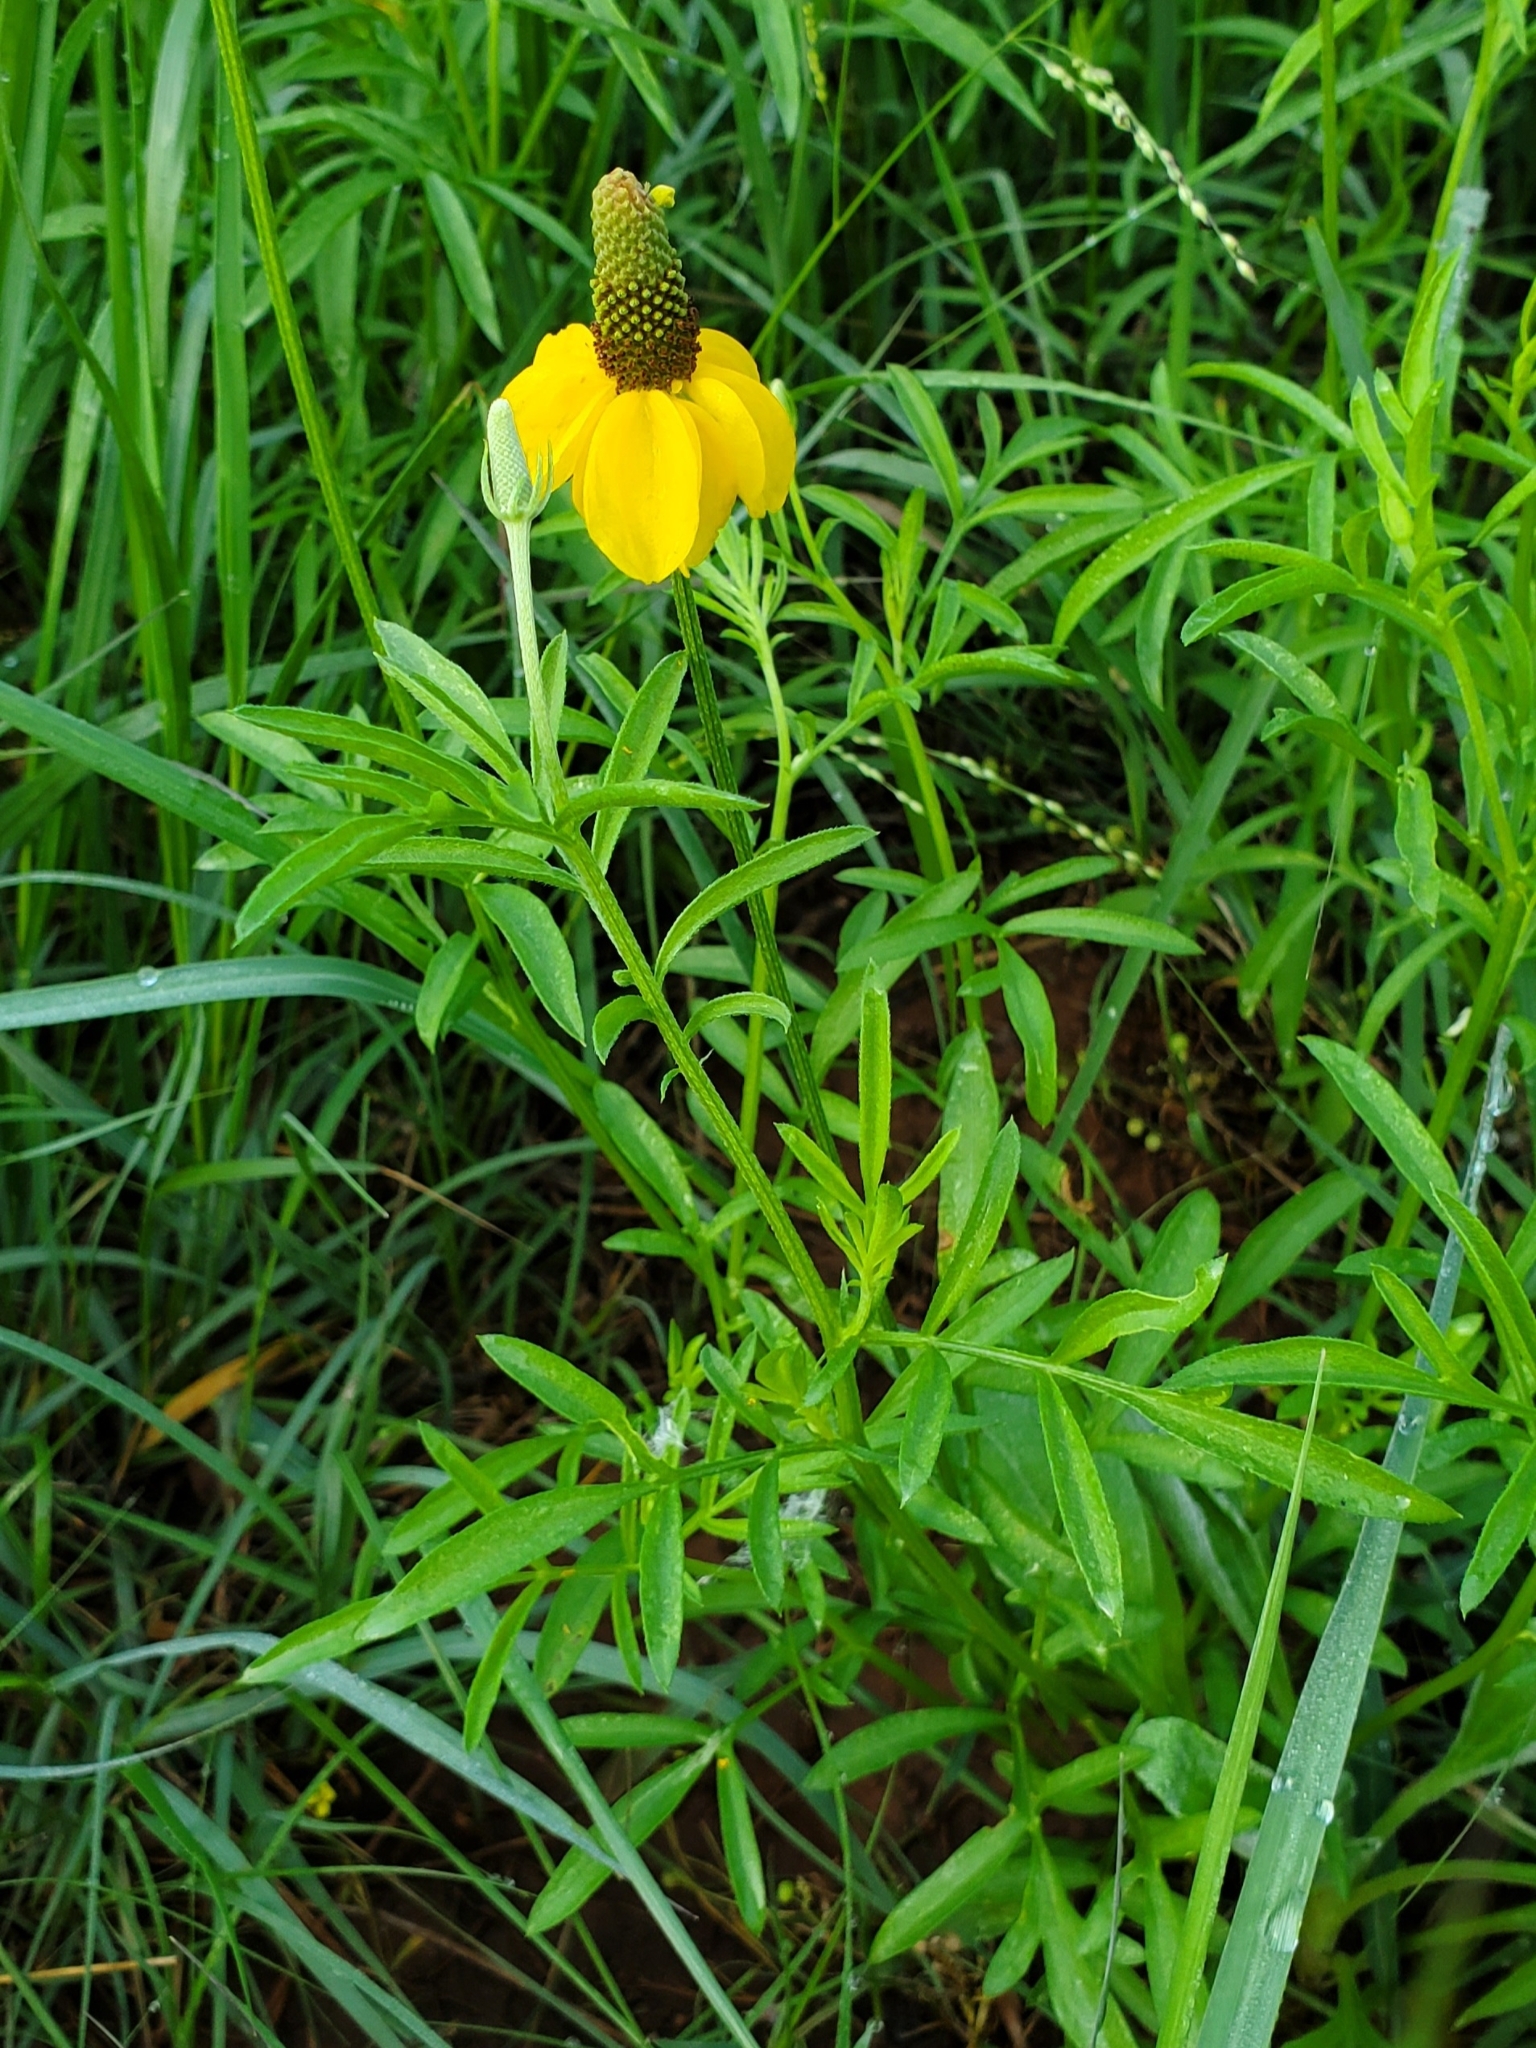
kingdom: Plantae
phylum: Tracheophyta
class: Magnoliopsida
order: Asterales
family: Asteraceae
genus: Ratibida
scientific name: Ratibida columnifera
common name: Prairie coneflower
